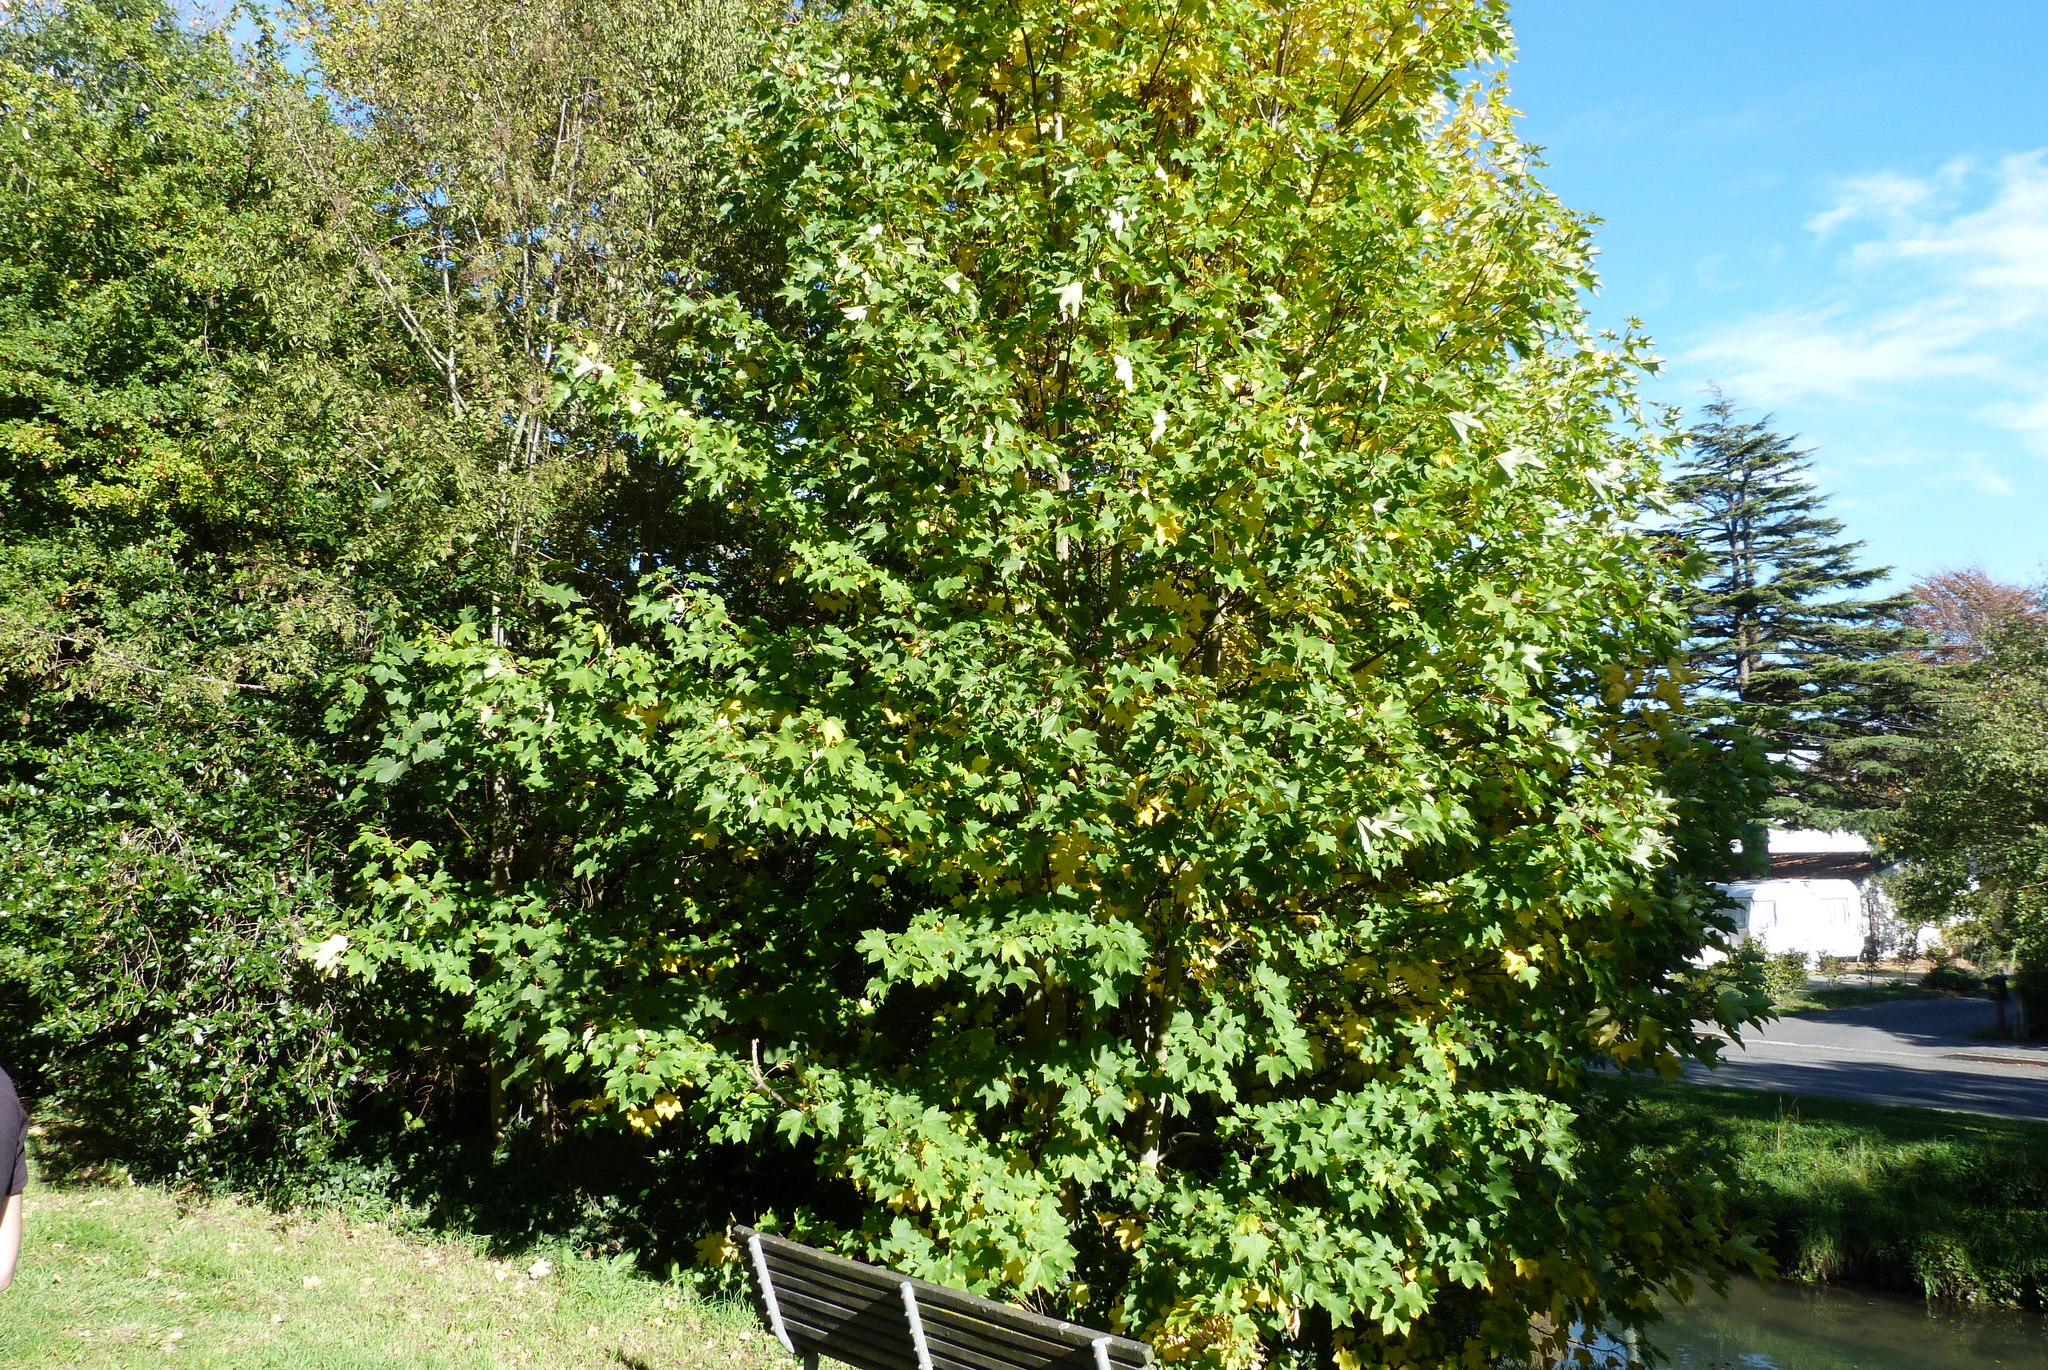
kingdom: Plantae
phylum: Tracheophyta
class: Magnoliopsida
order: Sapindales
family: Sapindaceae
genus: Acer
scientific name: Acer pseudoplatanus
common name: Sycamore
